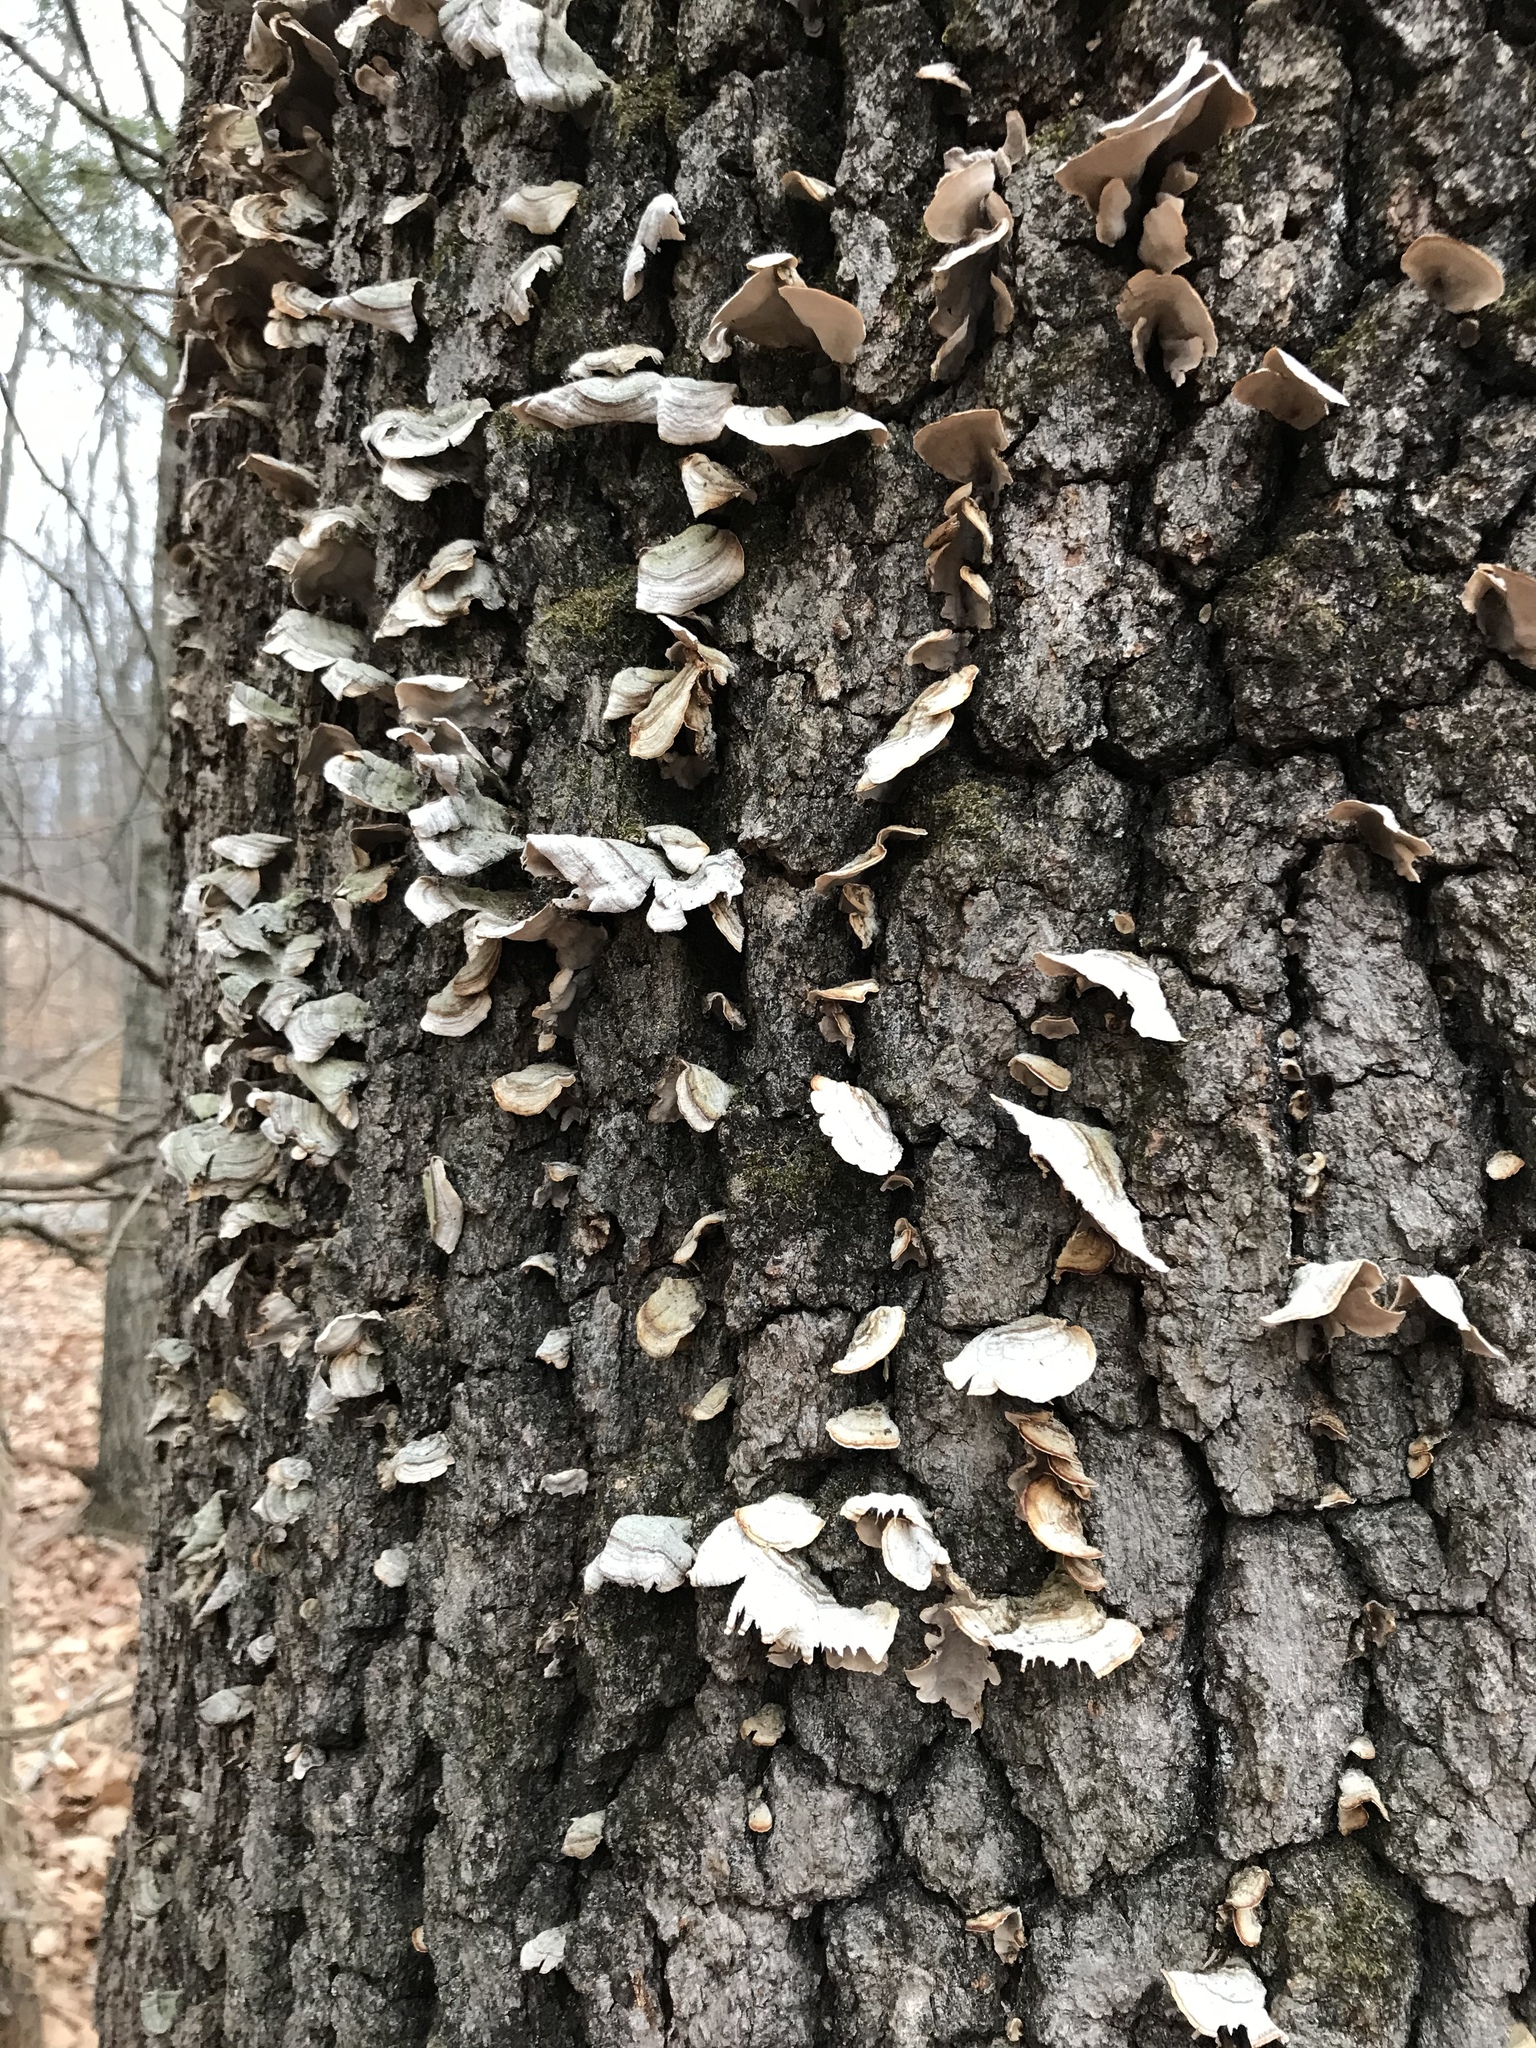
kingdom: Fungi
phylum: Basidiomycota
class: Agaricomycetes
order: Russulales
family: Stereaceae
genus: Stereum
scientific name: Stereum ostrea
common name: False turkeytail
